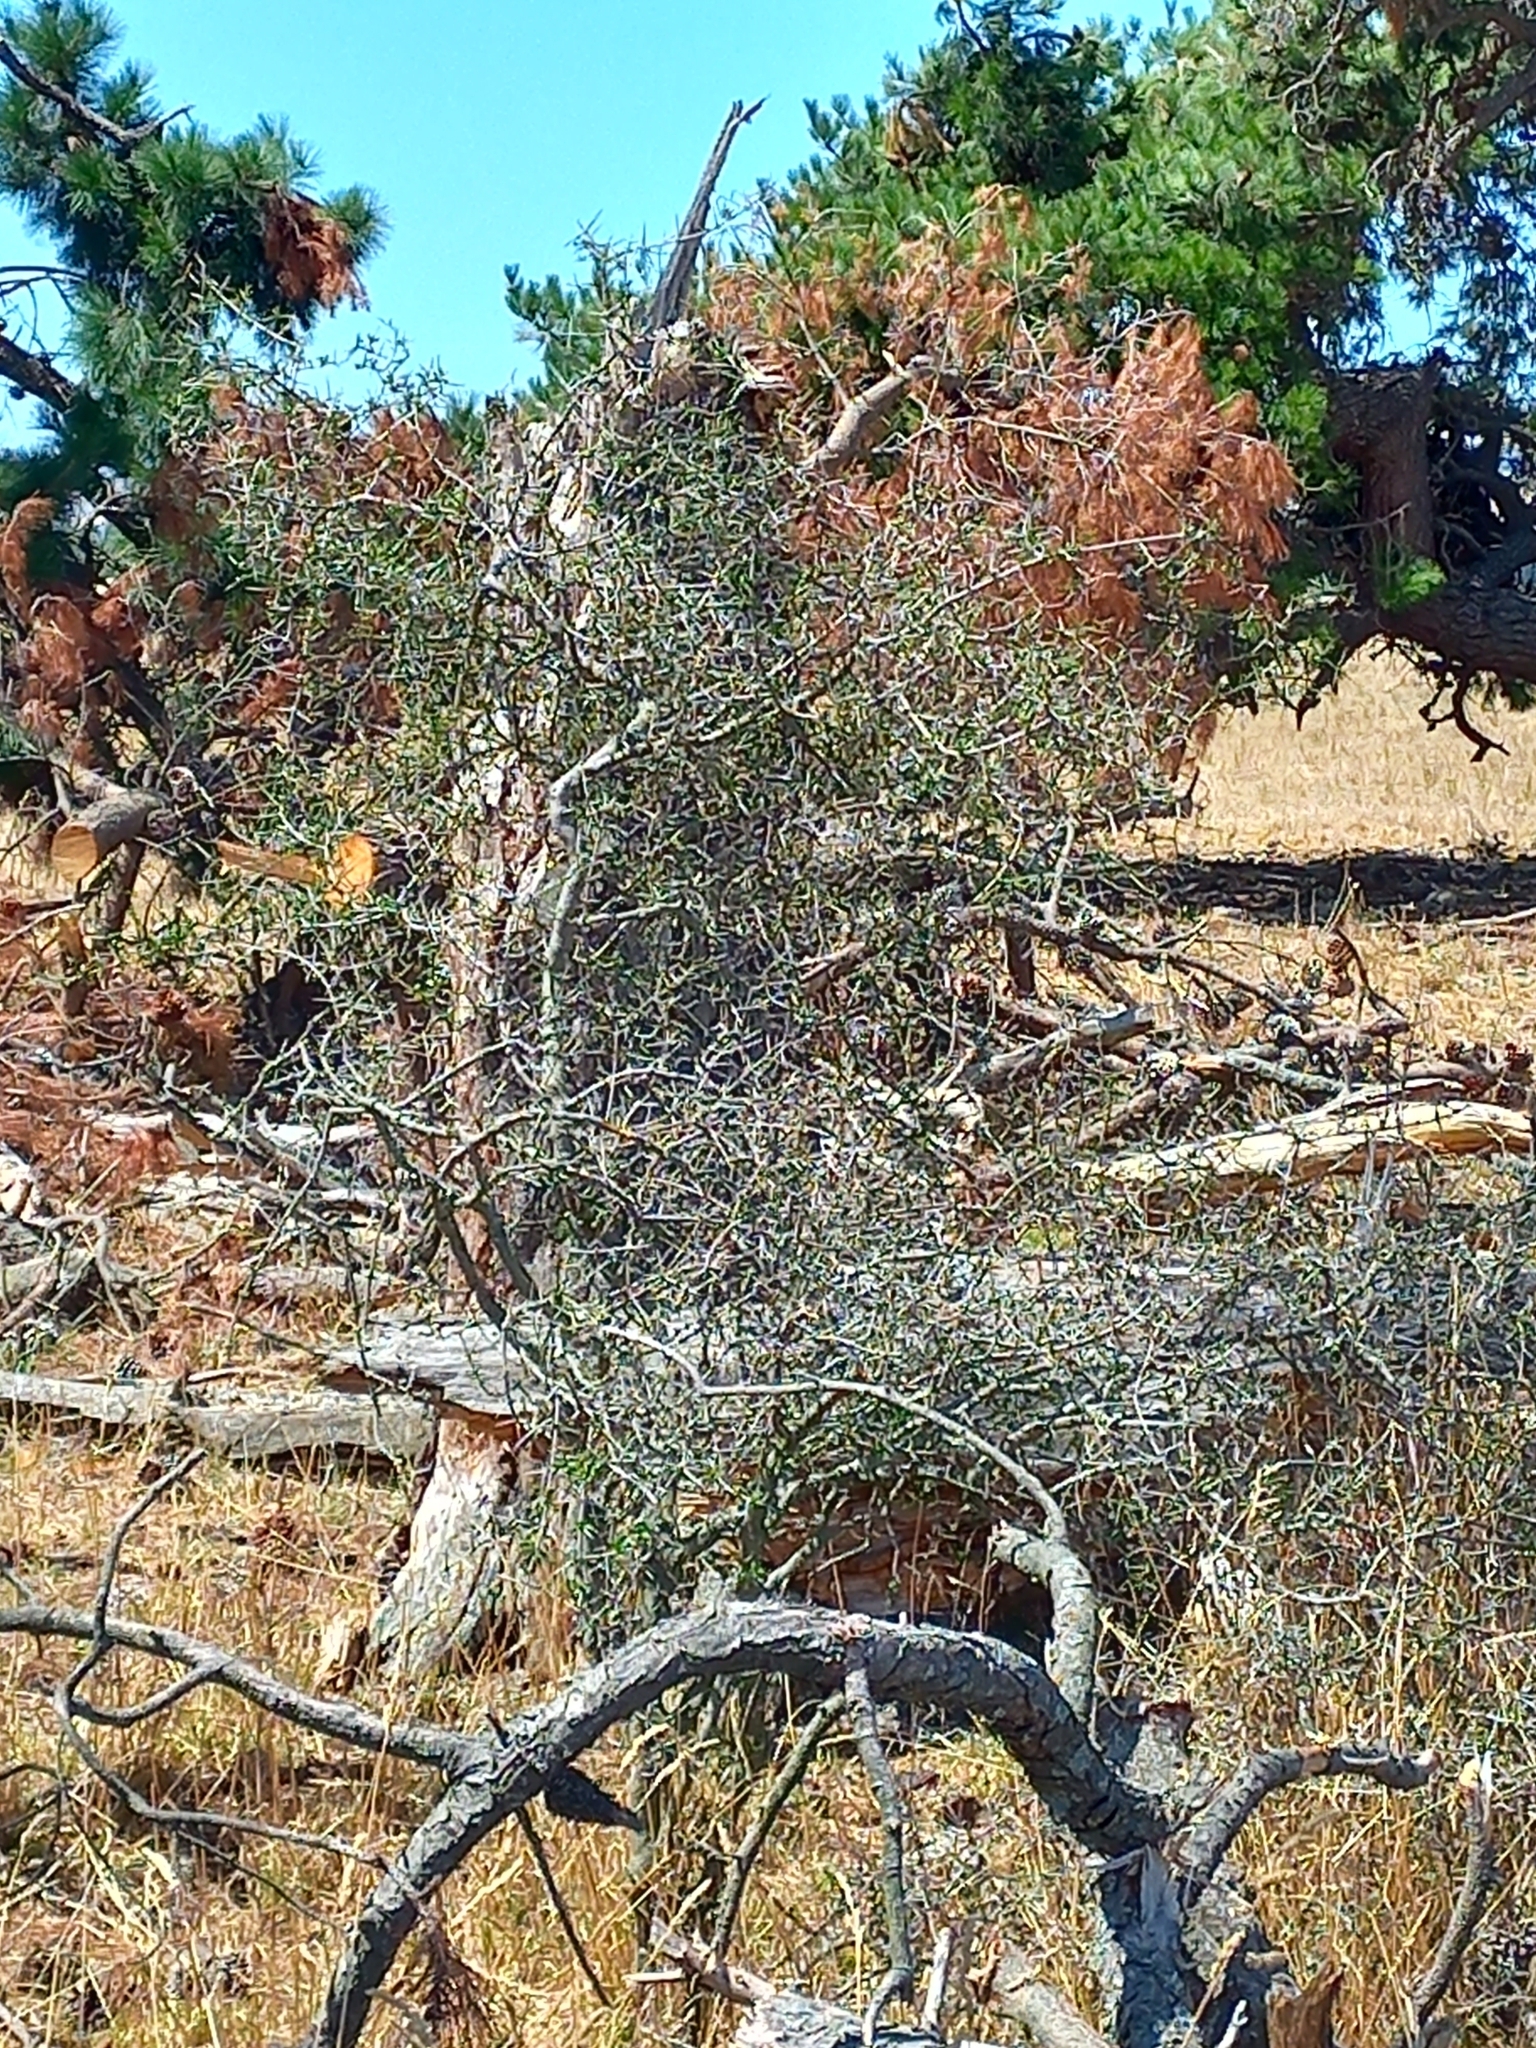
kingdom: Plantae
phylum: Tracheophyta
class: Magnoliopsida
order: Rosales
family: Rhamnaceae
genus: Discaria
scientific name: Discaria toumatou
